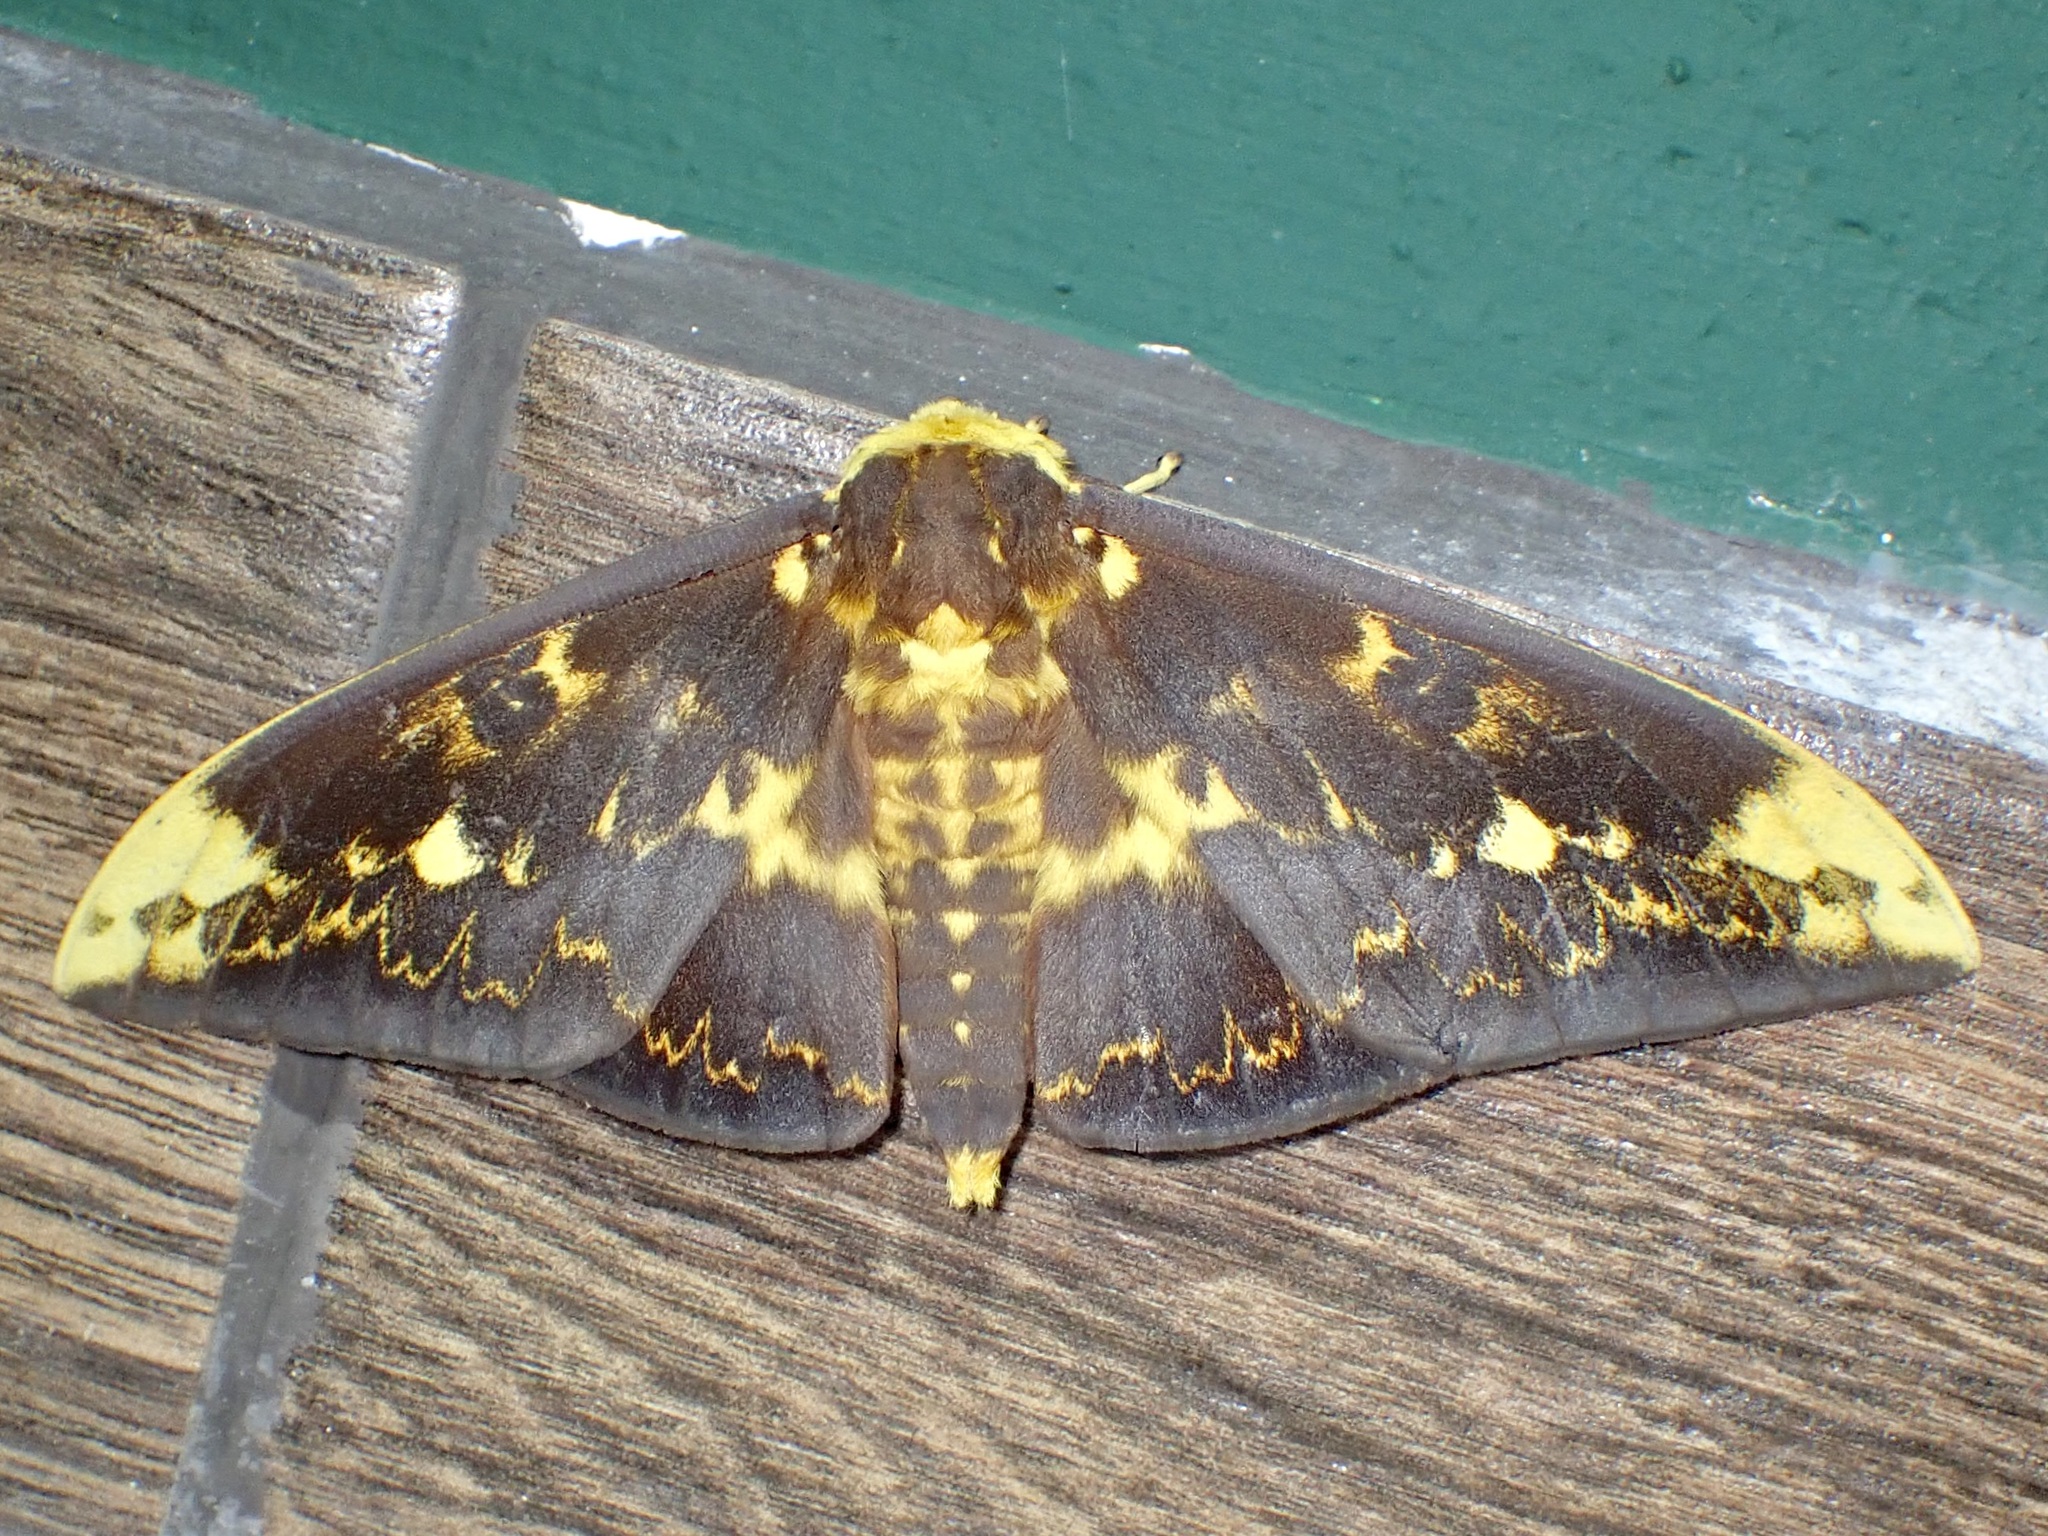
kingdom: Animalia
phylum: Arthropoda
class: Insecta
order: Lepidoptera
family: Saturniidae
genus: Citheronioides
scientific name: Citheronioides lamata
